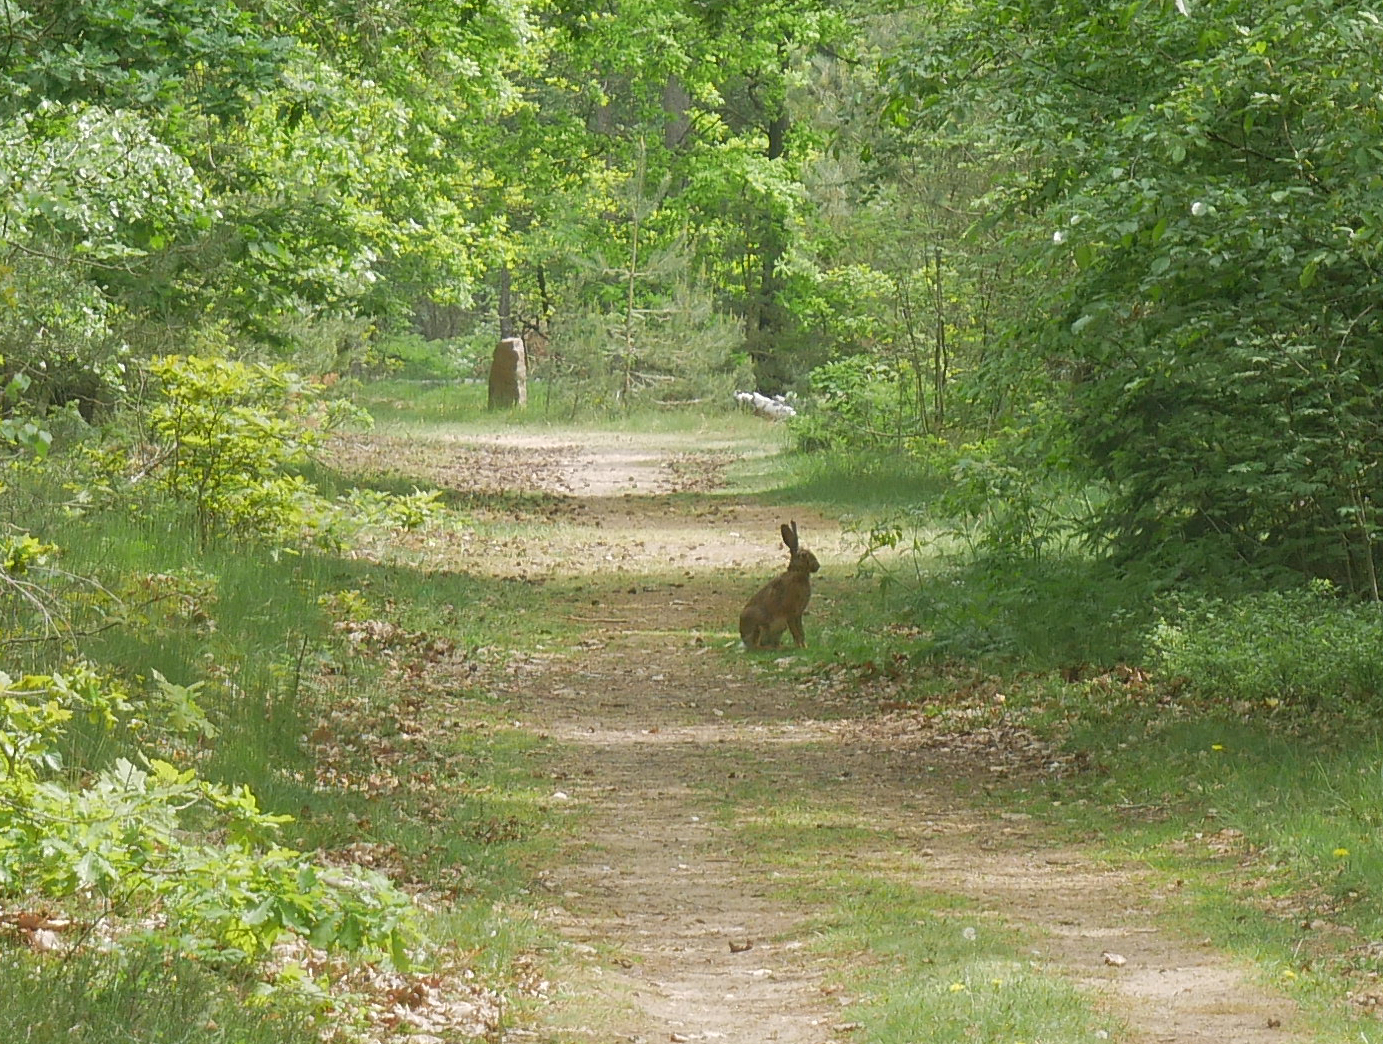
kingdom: Animalia
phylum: Chordata
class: Mammalia
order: Lagomorpha
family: Leporidae
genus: Lepus
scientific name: Lepus europaeus
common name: European hare
